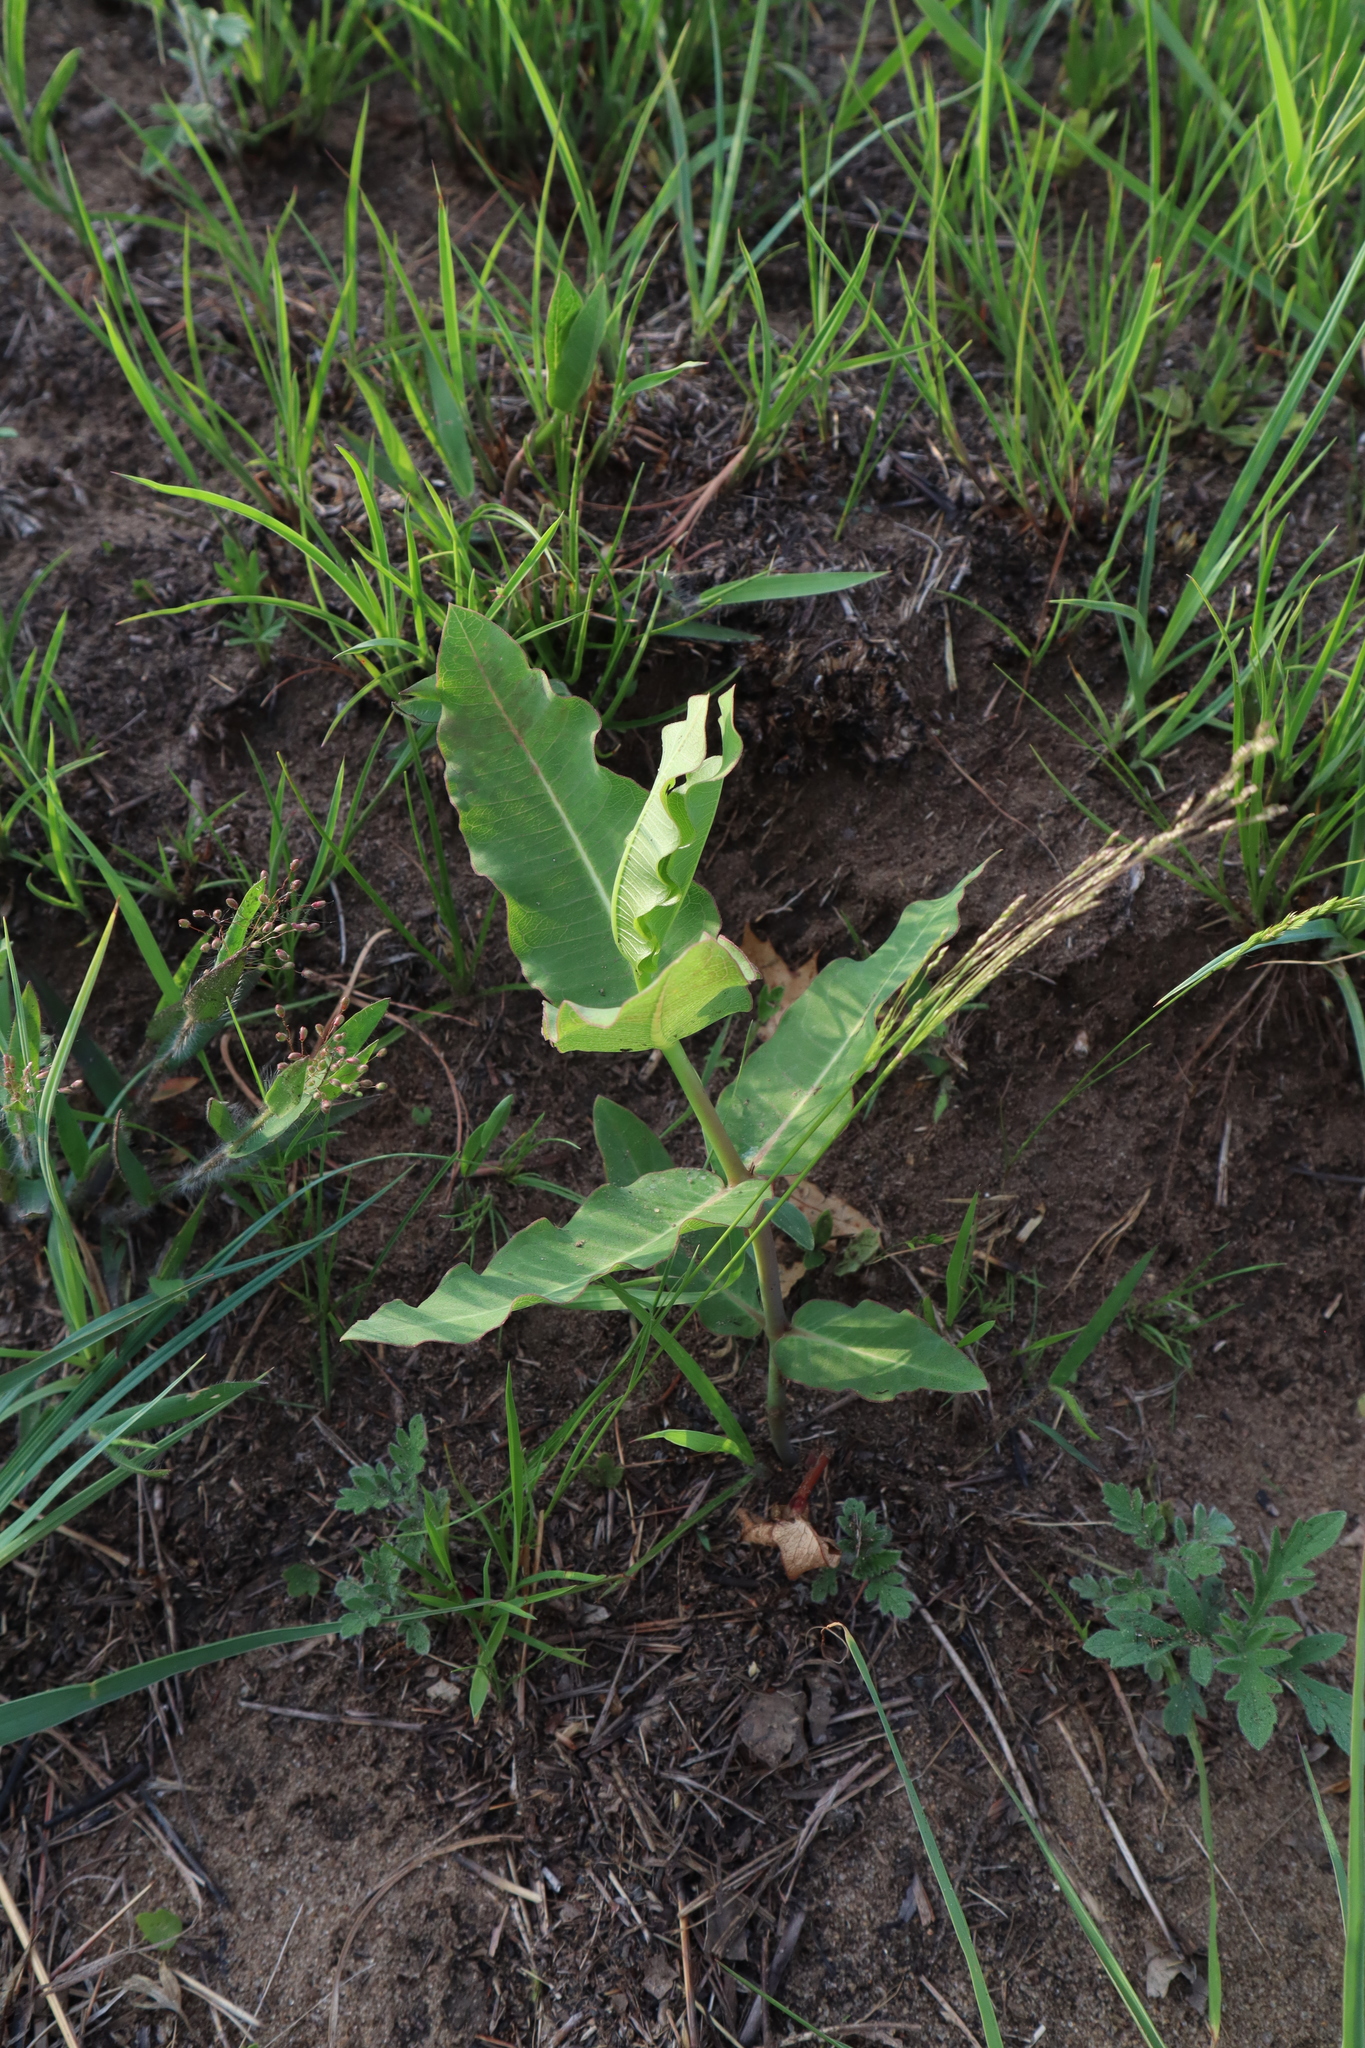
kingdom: Plantae
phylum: Tracheophyta
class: Magnoliopsida
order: Gentianales
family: Apocynaceae
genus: Asclepias
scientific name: Asclepias amplexicaulis
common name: Blunt-leaf milkweed
